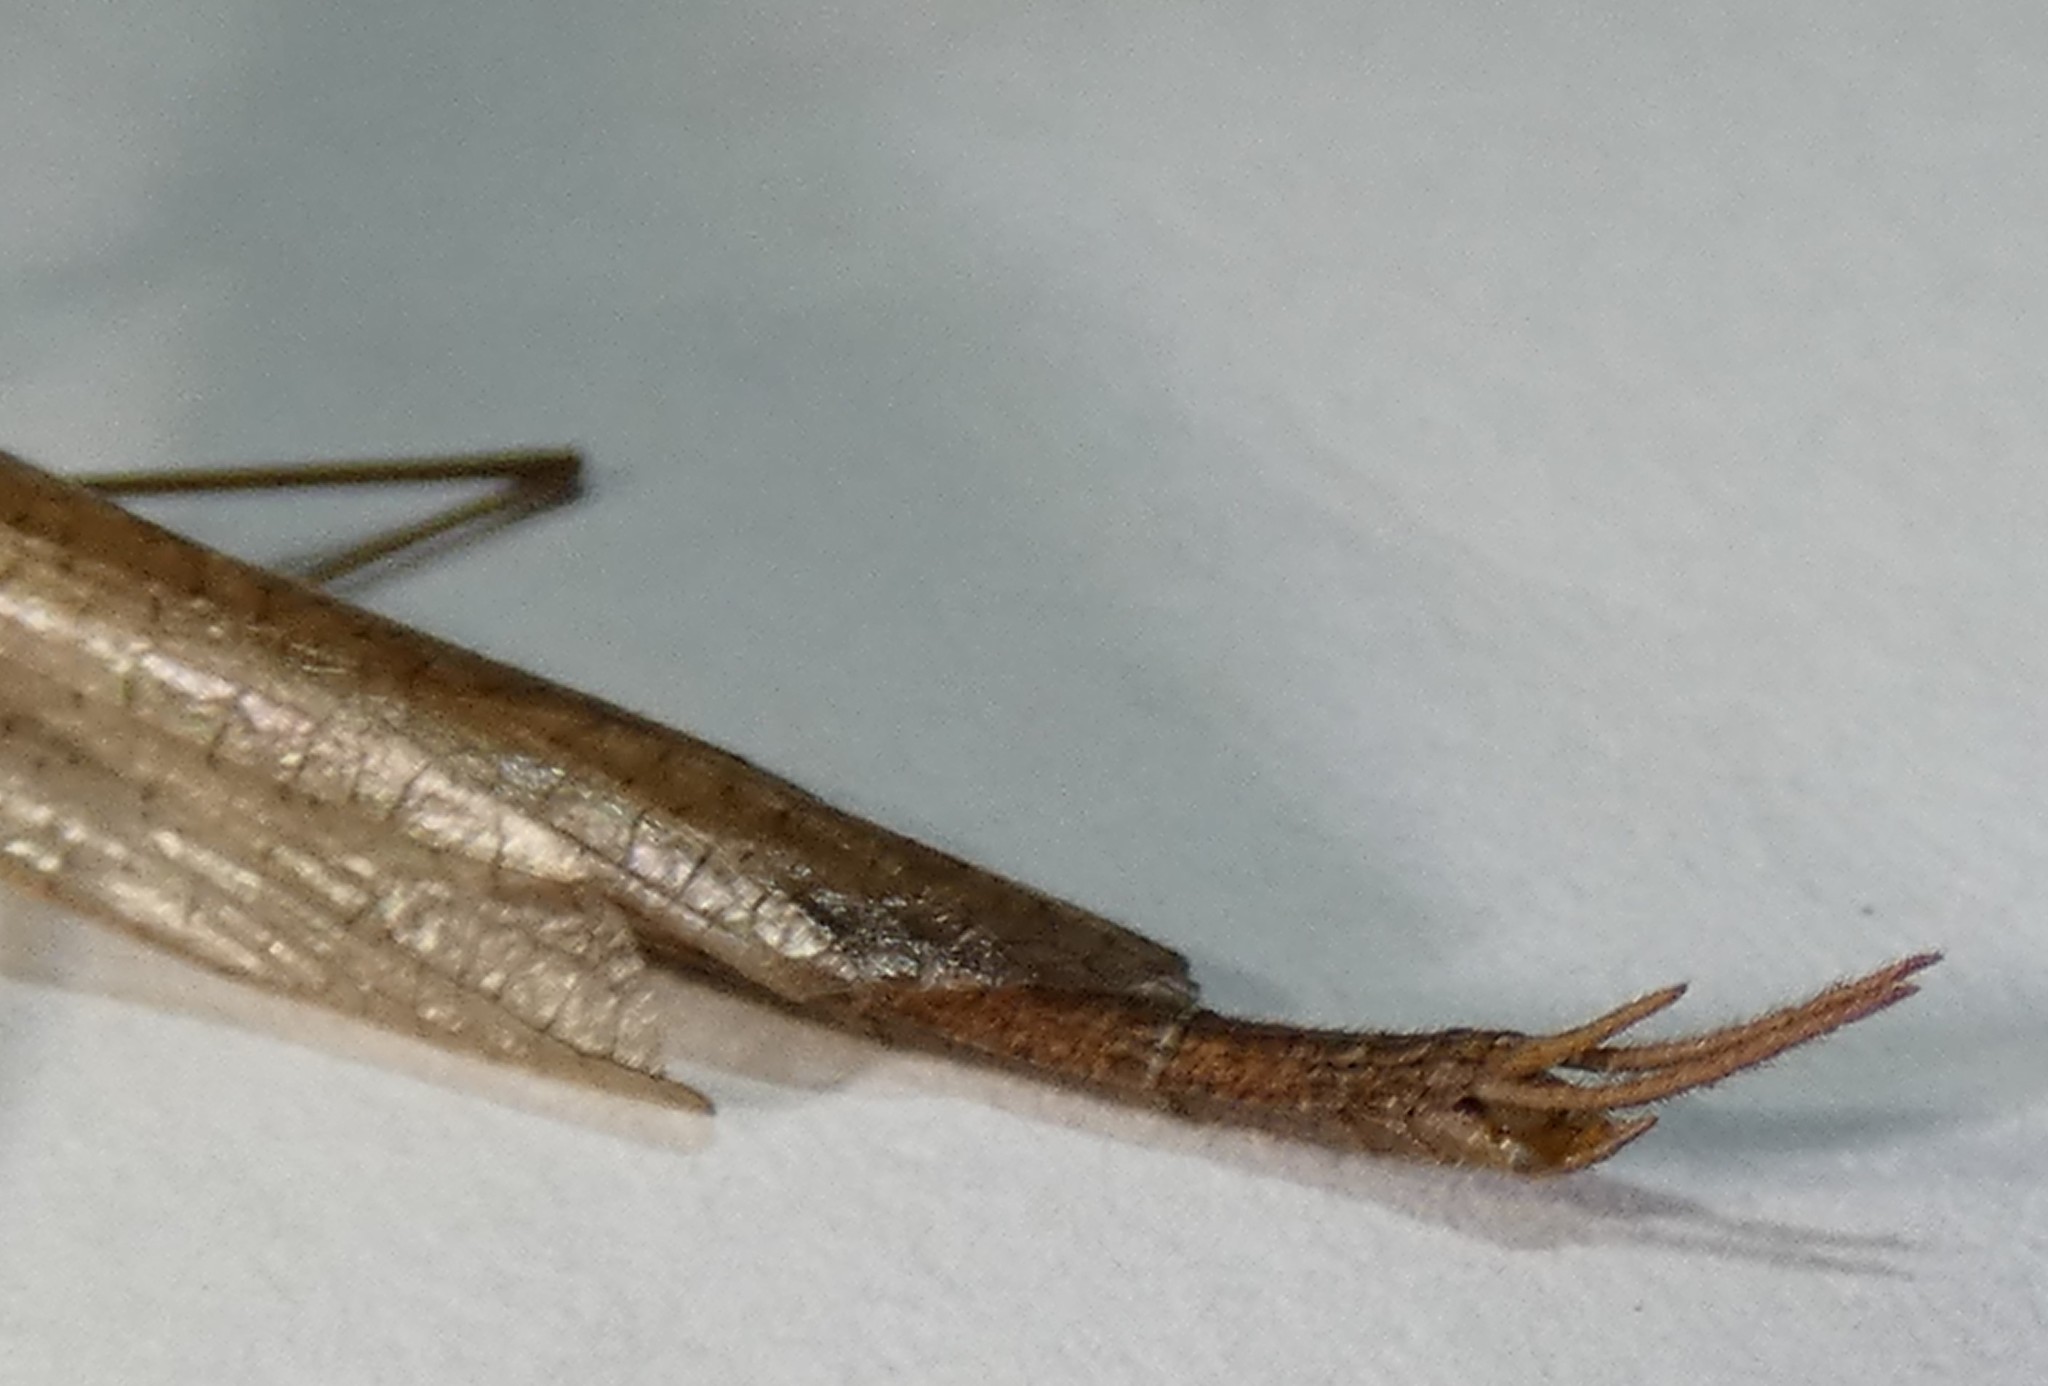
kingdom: Animalia
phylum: Arthropoda
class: Insecta
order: Mantodea
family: Thespidae
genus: Thesprotia
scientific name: Thesprotia graminis
